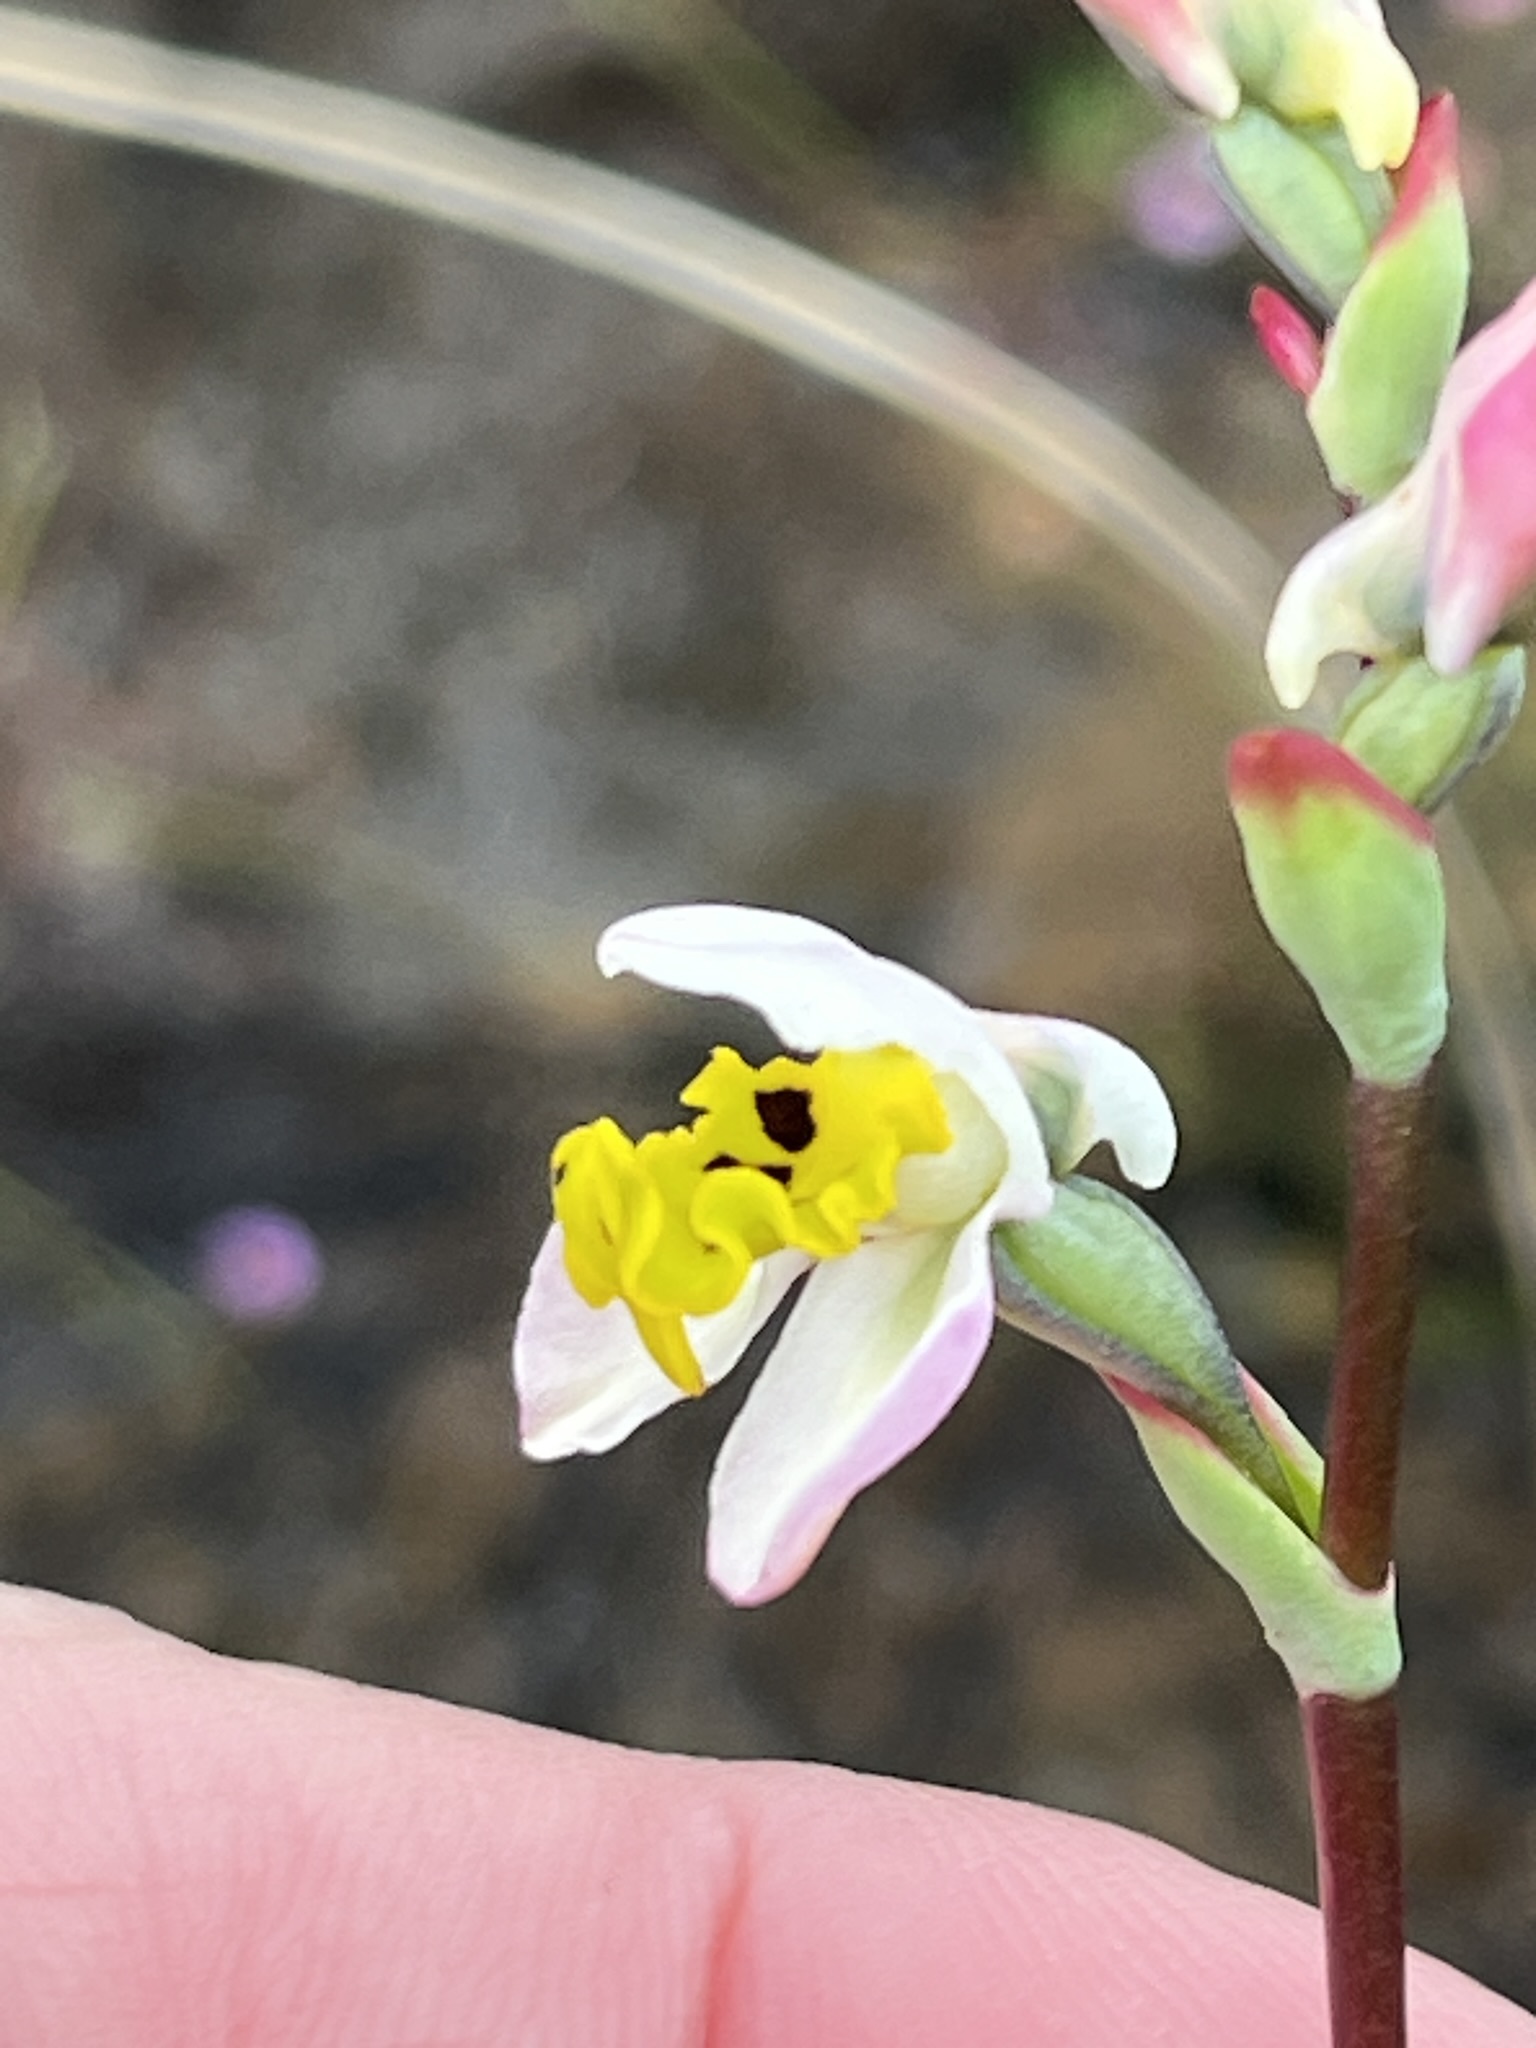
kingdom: Plantae
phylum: Tracheophyta
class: Liliopsida
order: Asparagales
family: Orchidaceae
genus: Disa
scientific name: Disa flexuosa
